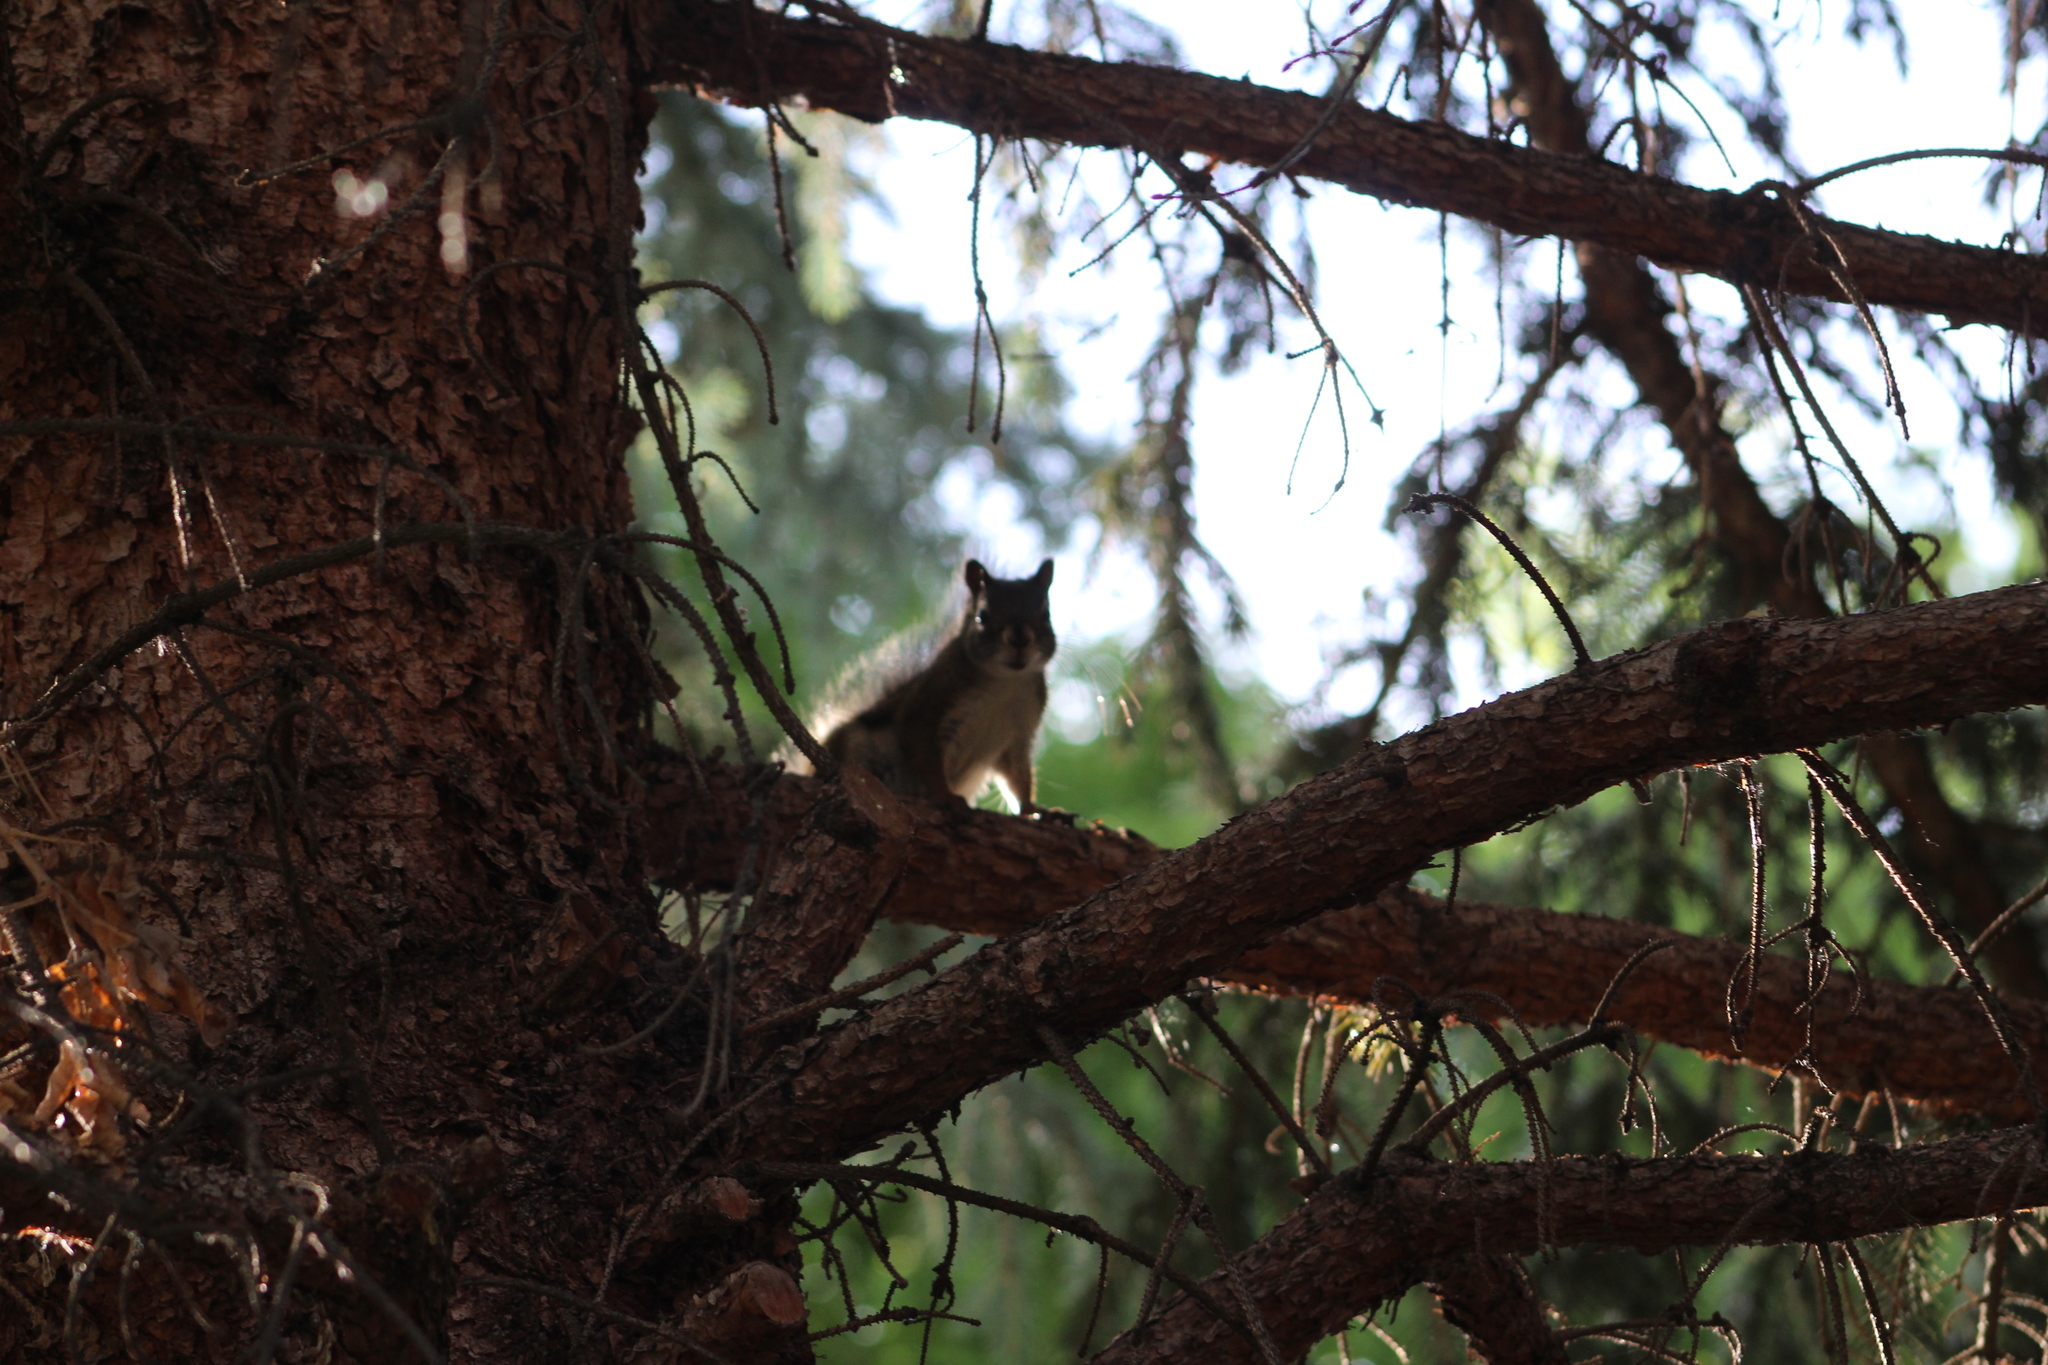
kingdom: Animalia
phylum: Chordata
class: Mammalia
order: Rodentia
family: Sciuridae
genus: Tamiasciurus
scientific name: Tamiasciurus hudsonicus
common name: Red squirrel
